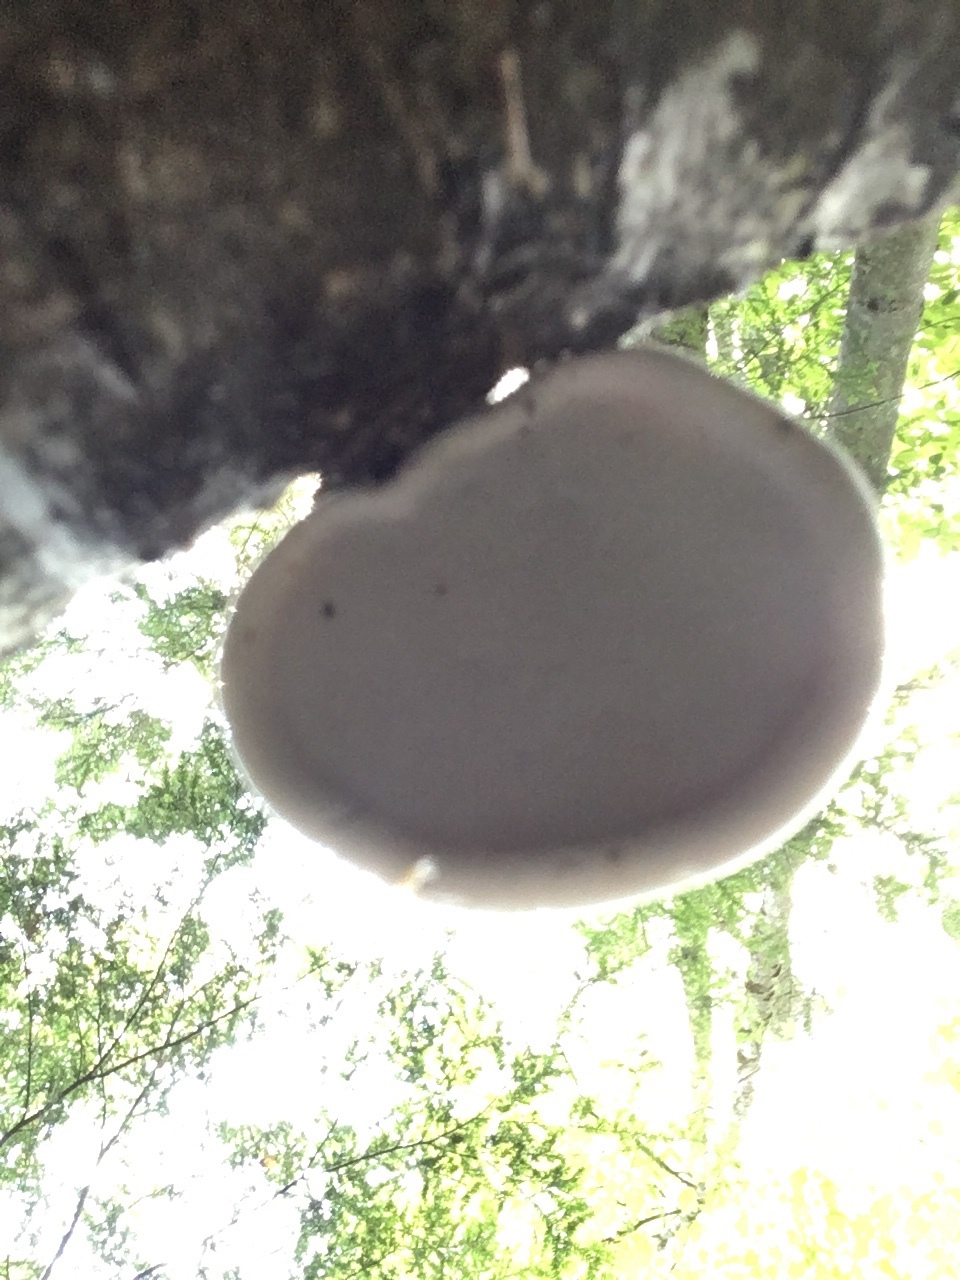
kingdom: Fungi
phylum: Basidiomycota
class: Agaricomycetes
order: Polyporales
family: Fomitopsidaceae
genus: Fomitopsis
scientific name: Fomitopsis betulina
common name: Birch polypore
